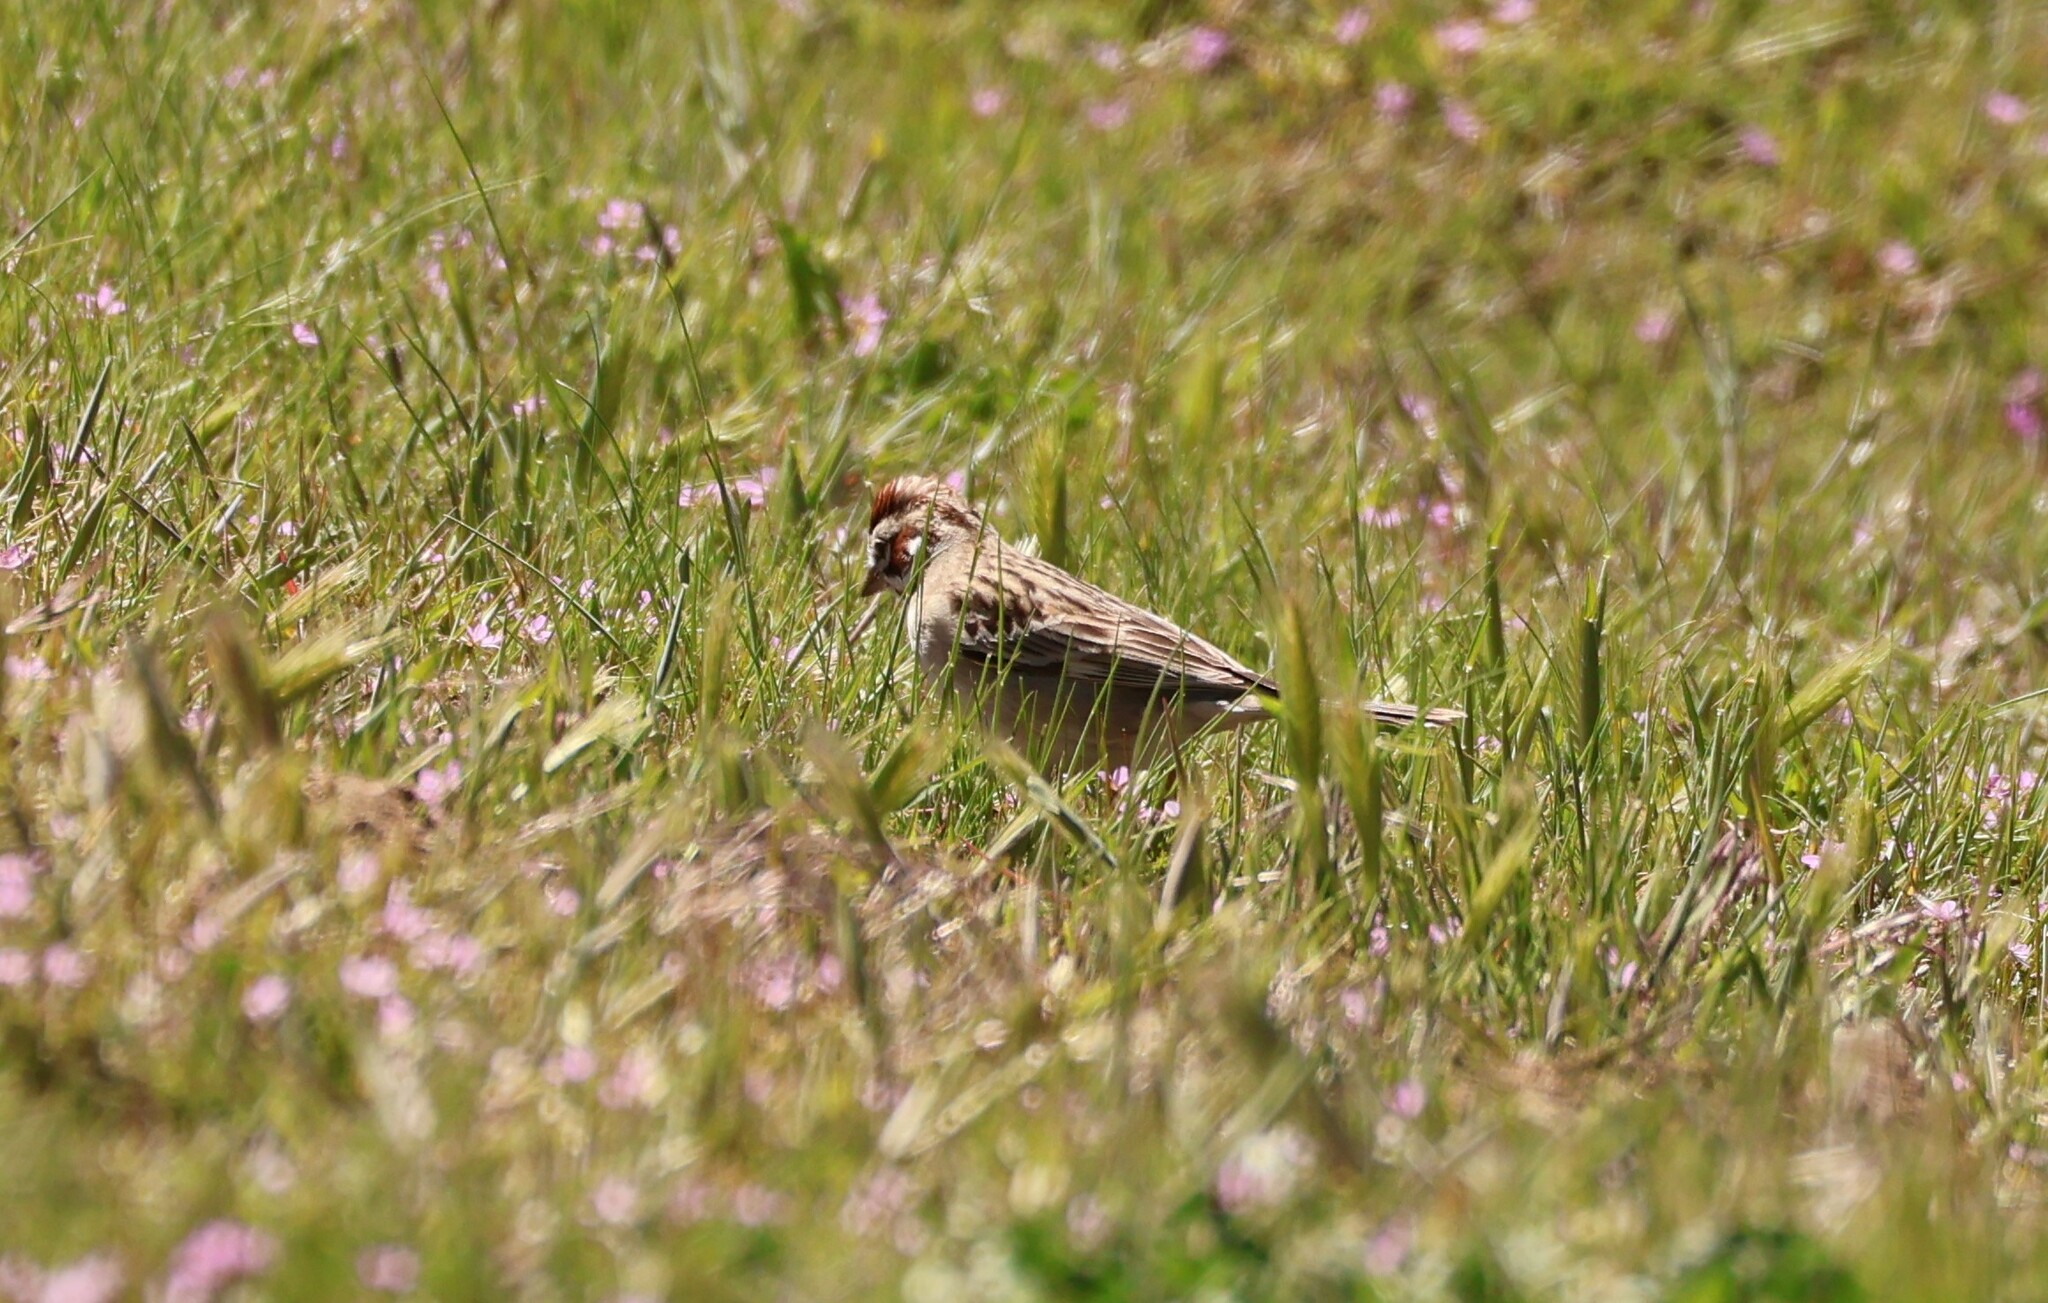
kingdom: Animalia
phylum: Chordata
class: Aves
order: Passeriformes
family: Passerellidae
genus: Chondestes
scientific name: Chondestes grammacus
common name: Lark sparrow
